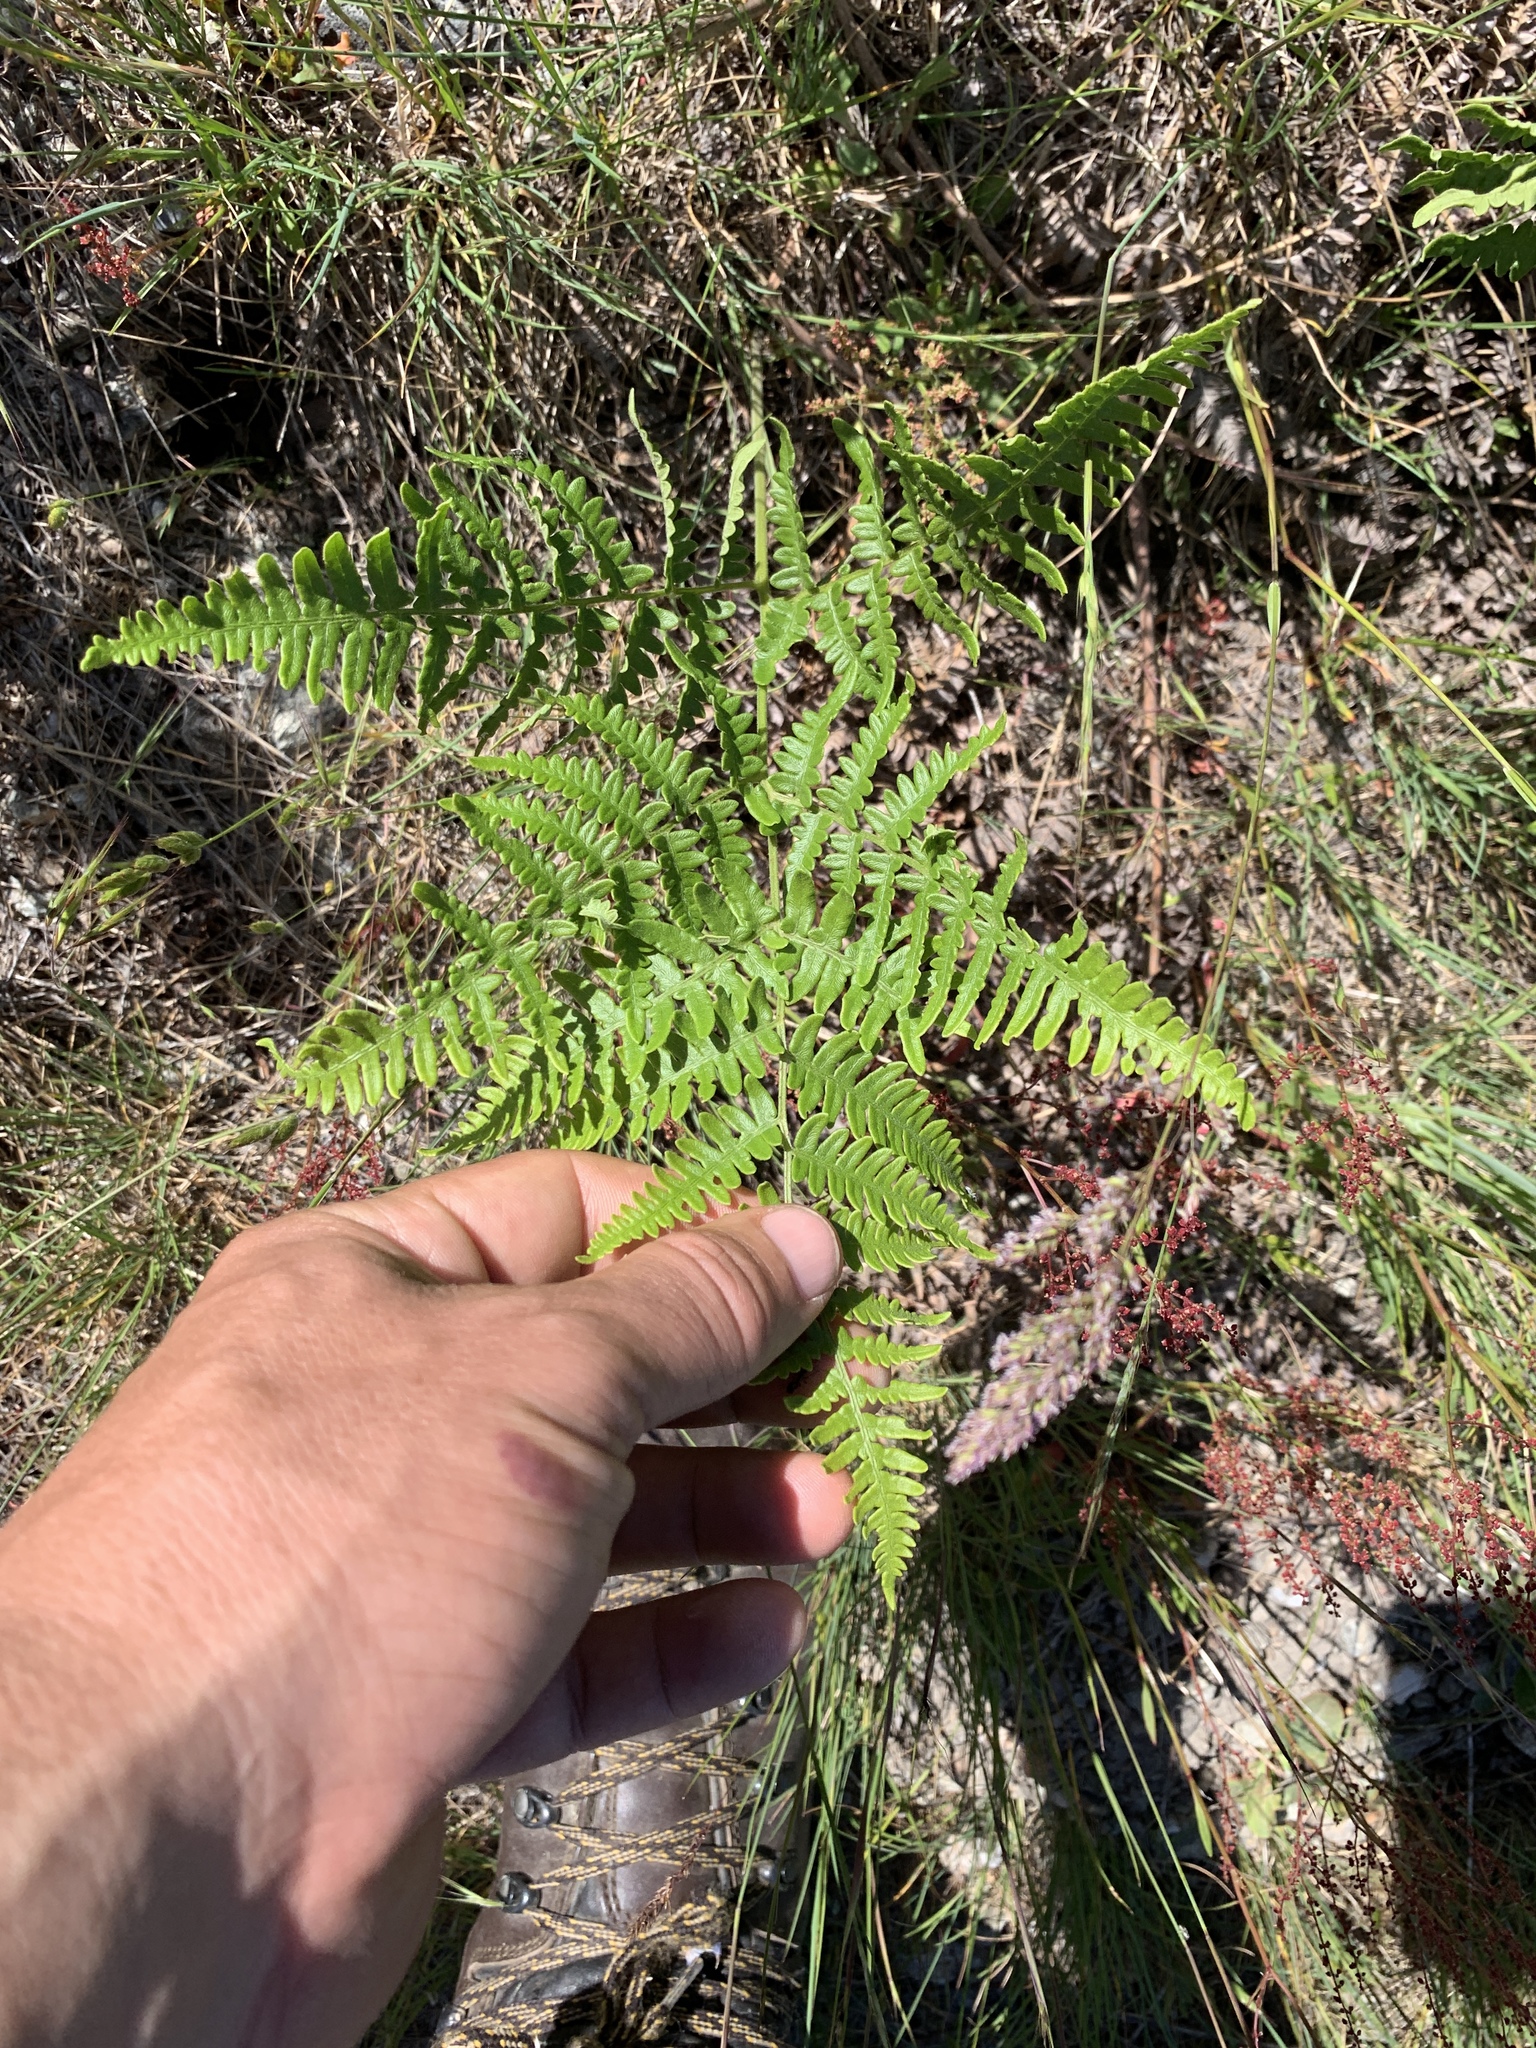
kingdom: Plantae
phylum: Tracheophyta
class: Polypodiopsida
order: Polypodiales
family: Dennstaedtiaceae
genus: Pteridium
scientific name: Pteridium aquilinum
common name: Bracken
